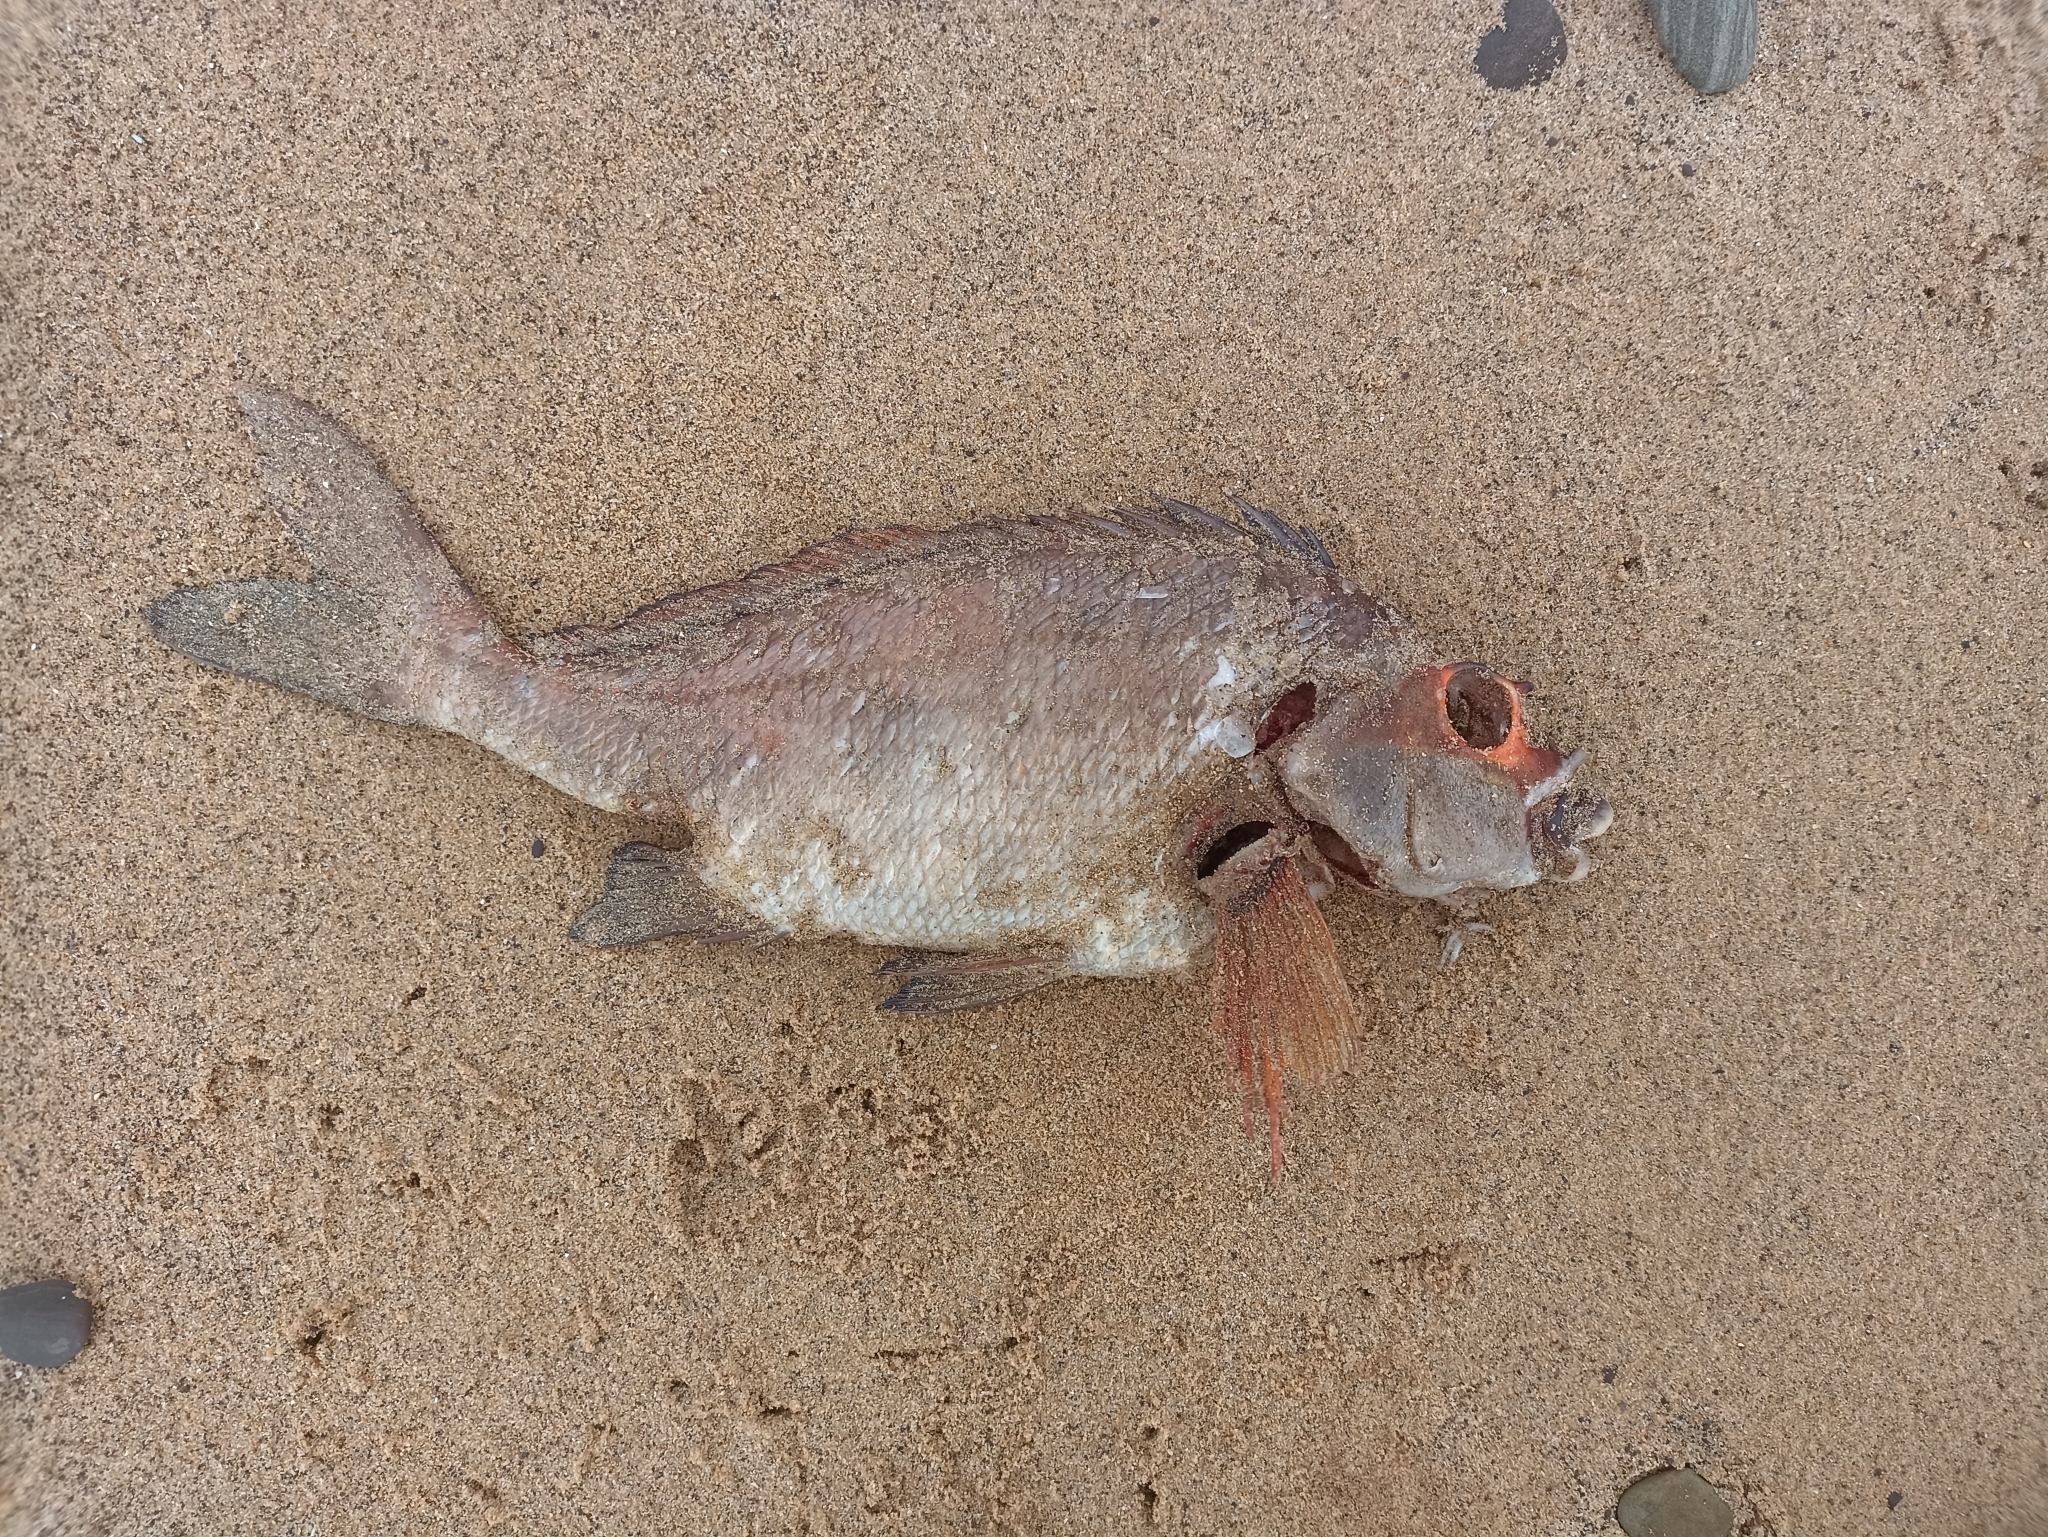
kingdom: Animalia
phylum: Chordata
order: Perciformes
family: Latridae
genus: Morwong
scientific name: Morwong fuscus
